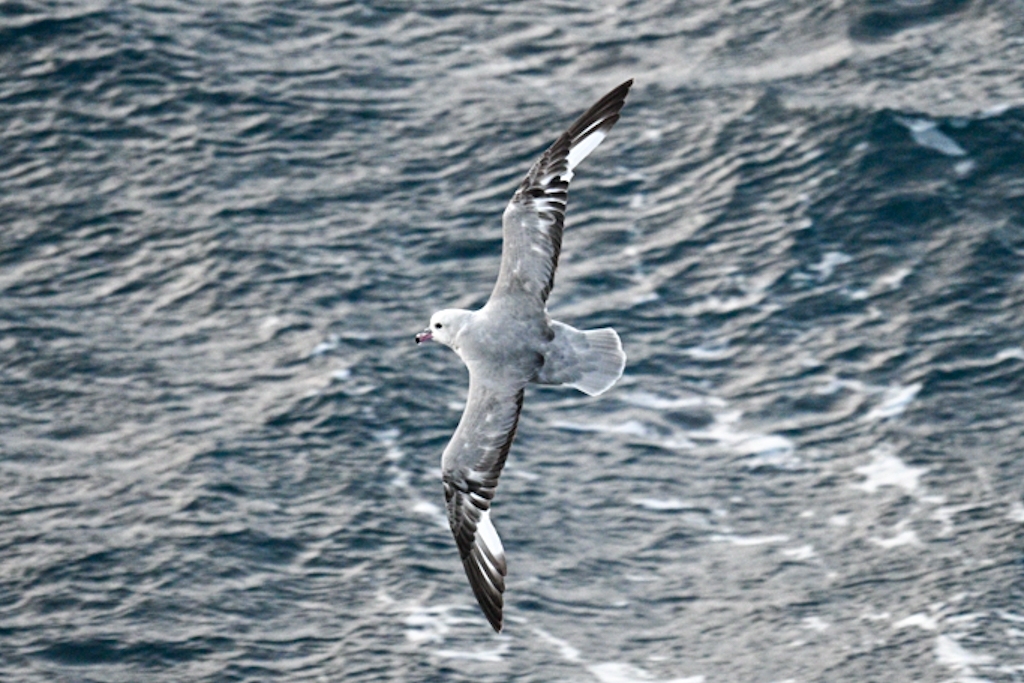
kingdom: Animalia
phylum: Chordata
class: Aves
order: Procellariiformes
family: Procellariidae
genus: Fulmarus
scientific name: Fulmarus glacialoides
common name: Southern fulmar
